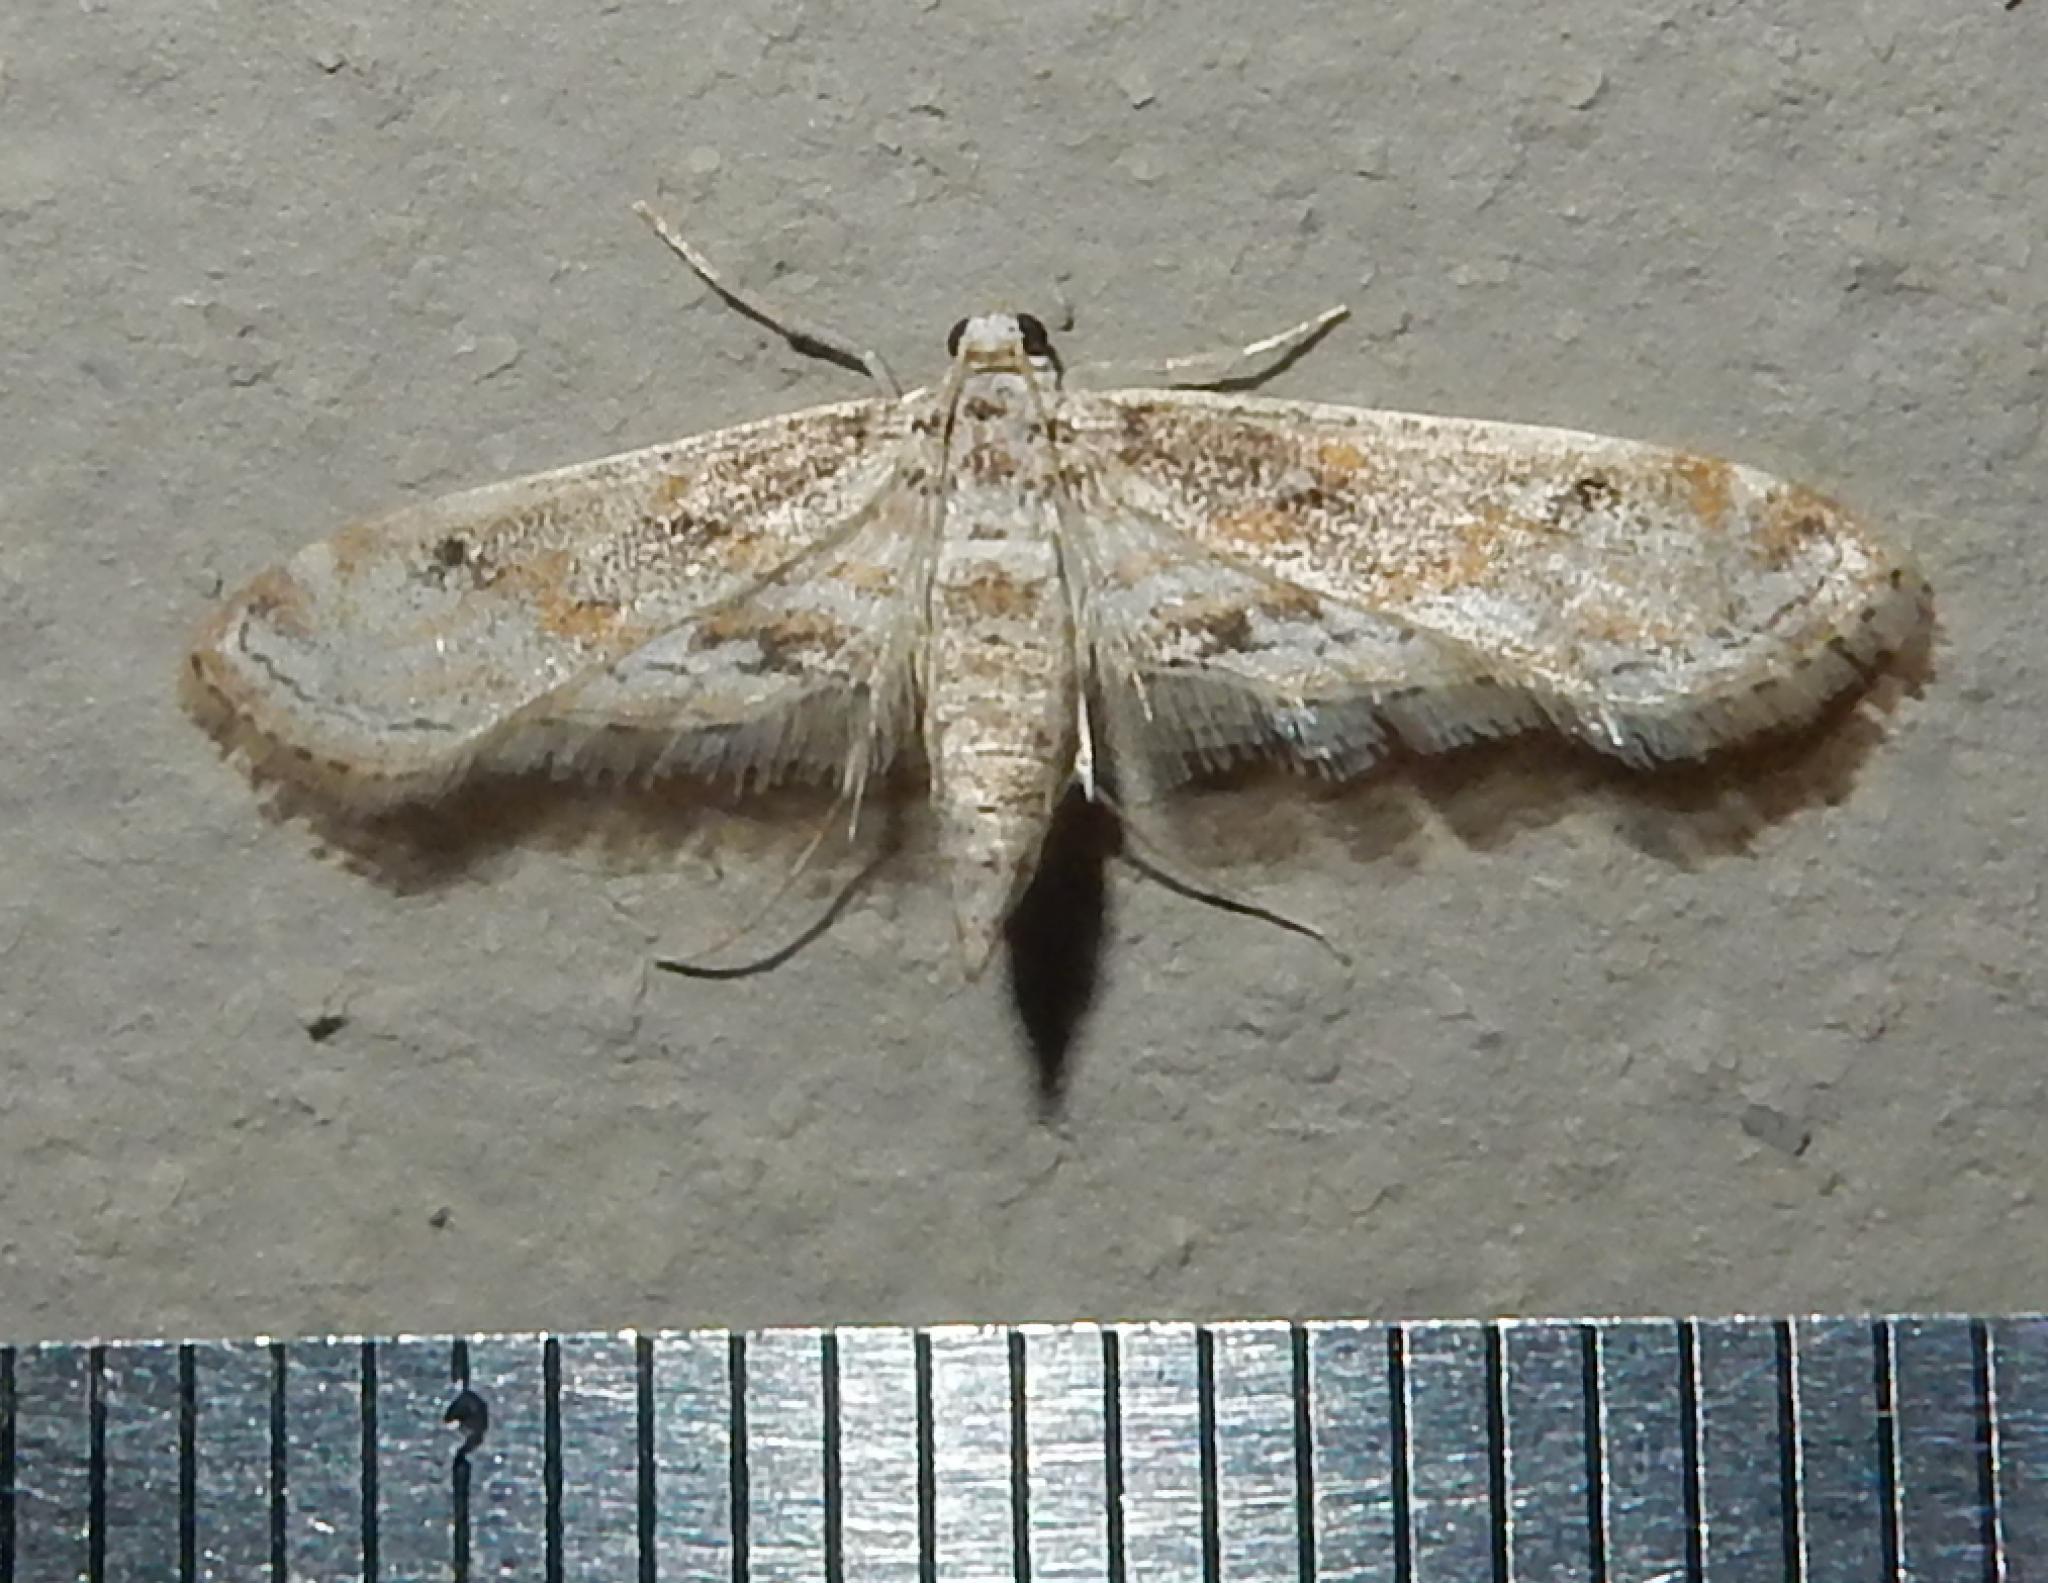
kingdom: Animalia
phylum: Arthropoda
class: Insecta
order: Lepidoptera
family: Crambidae
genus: Parapoynx
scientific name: Parapoynx fluctuosalis
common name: Moth
